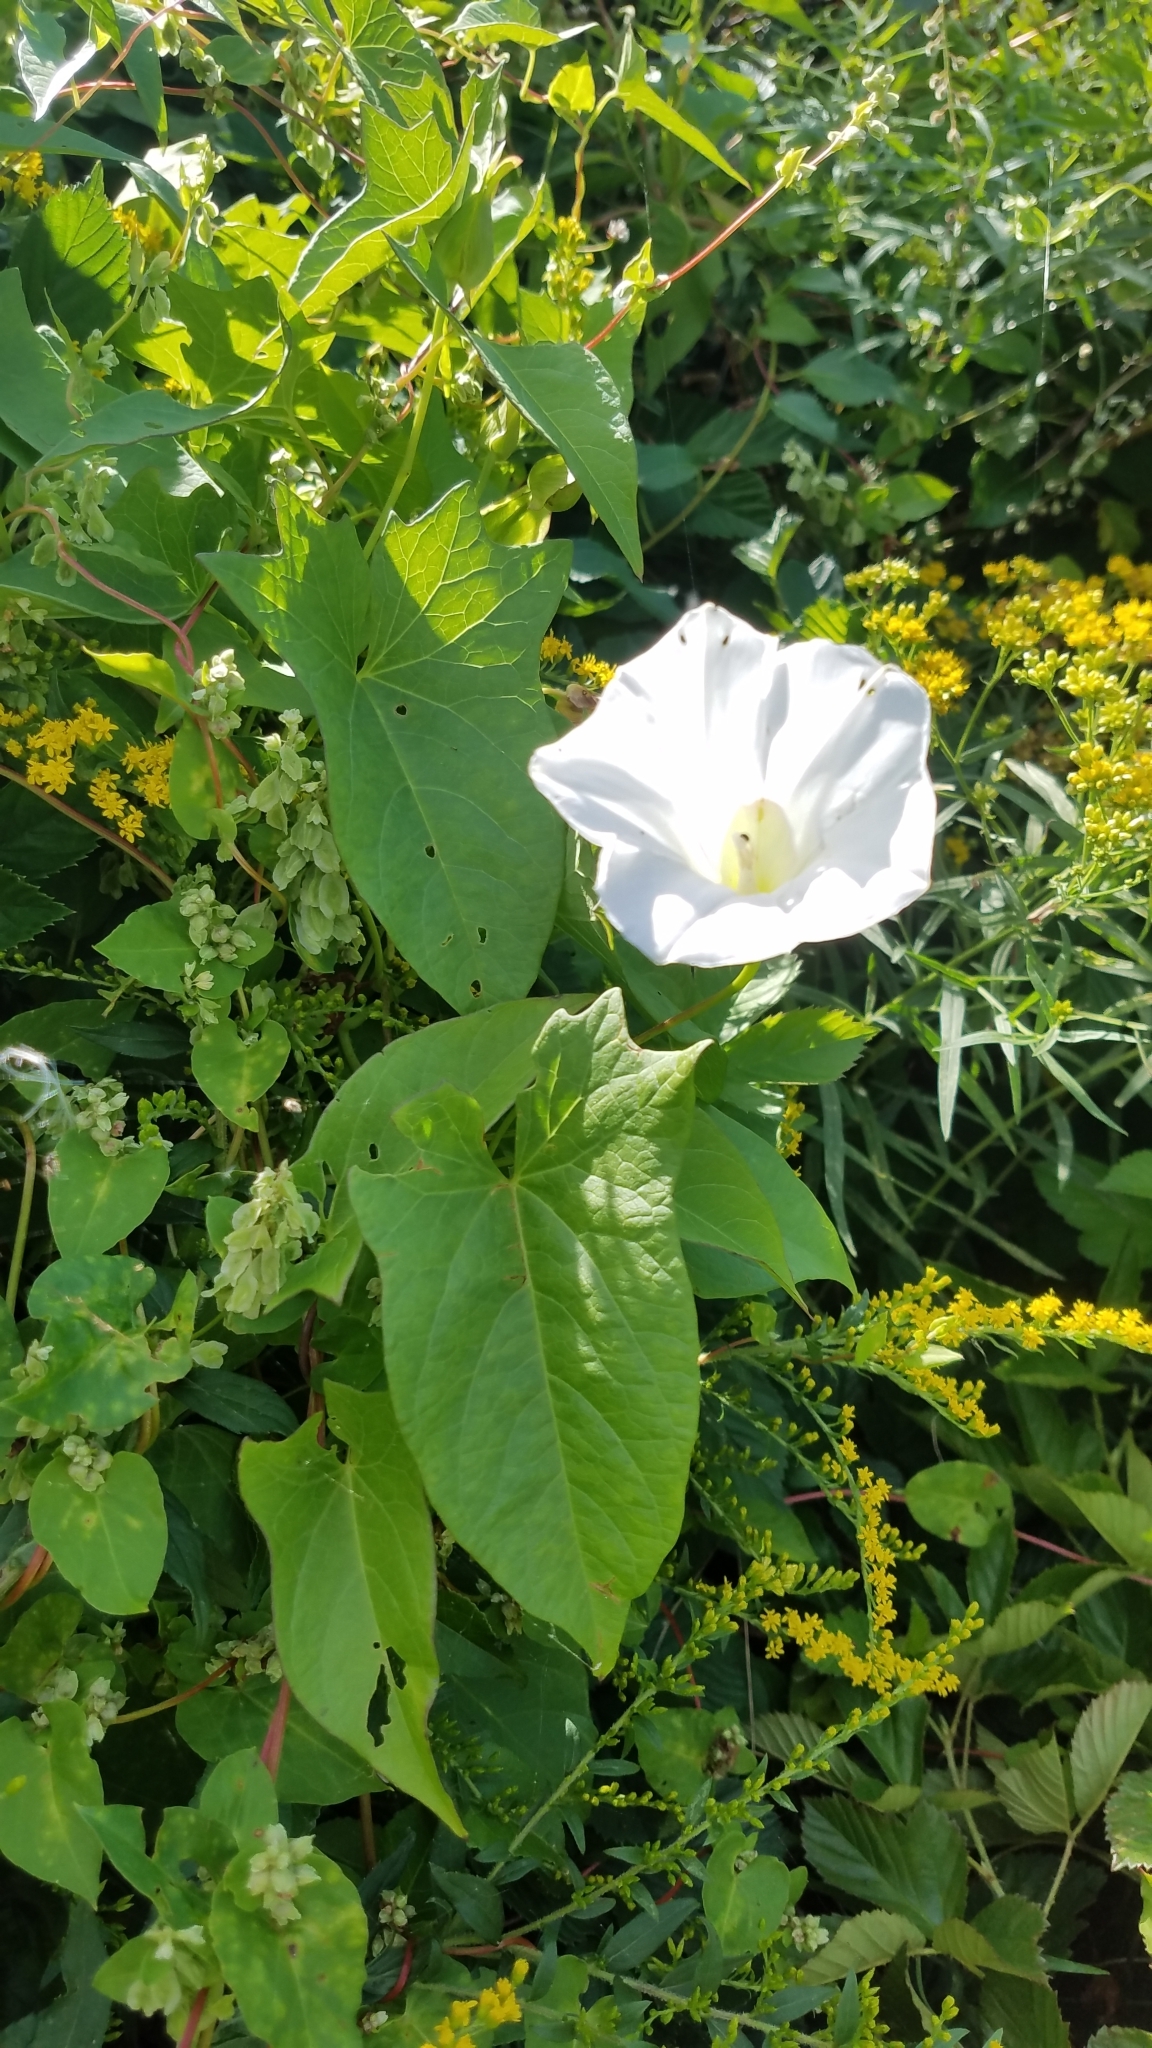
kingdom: Plantae
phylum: Tracheophyta
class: Magnoliopsida
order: Solanales
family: Convolvulaceae
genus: Calystegia
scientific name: Calystegia sepium
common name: Hedge bindweed
